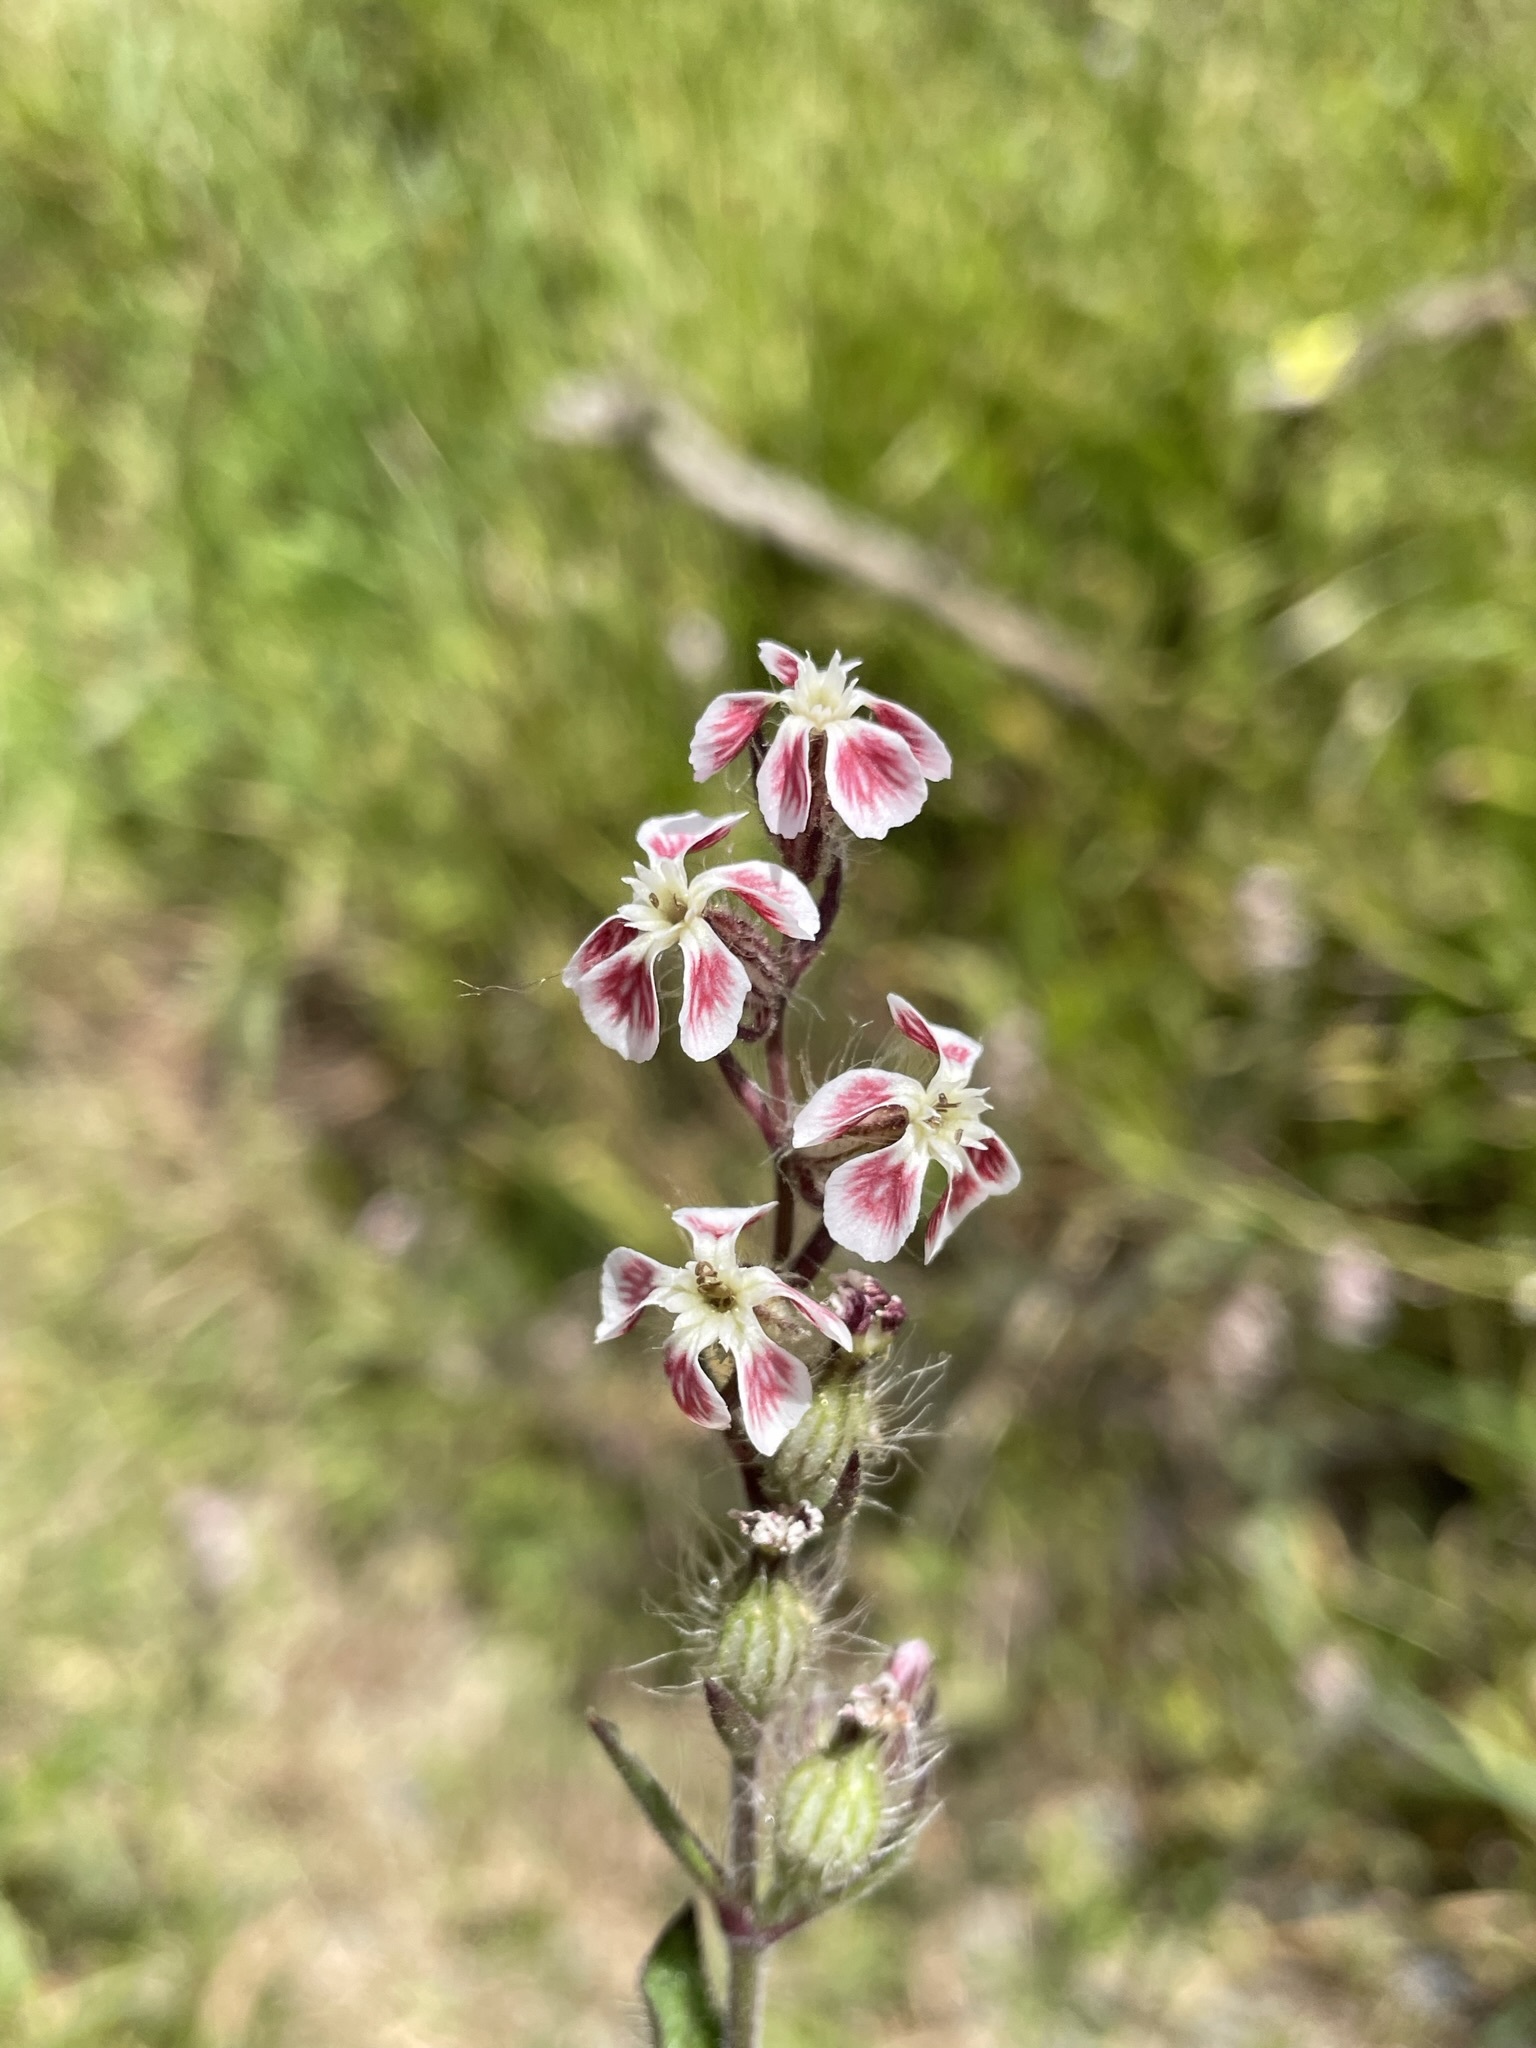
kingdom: Plantae
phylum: Tracheophyta
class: Magnoliopsida
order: Caryophyllales
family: Caryophyllaceae
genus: Silene
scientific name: Silene gallica
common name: Small-flowered catchfly
